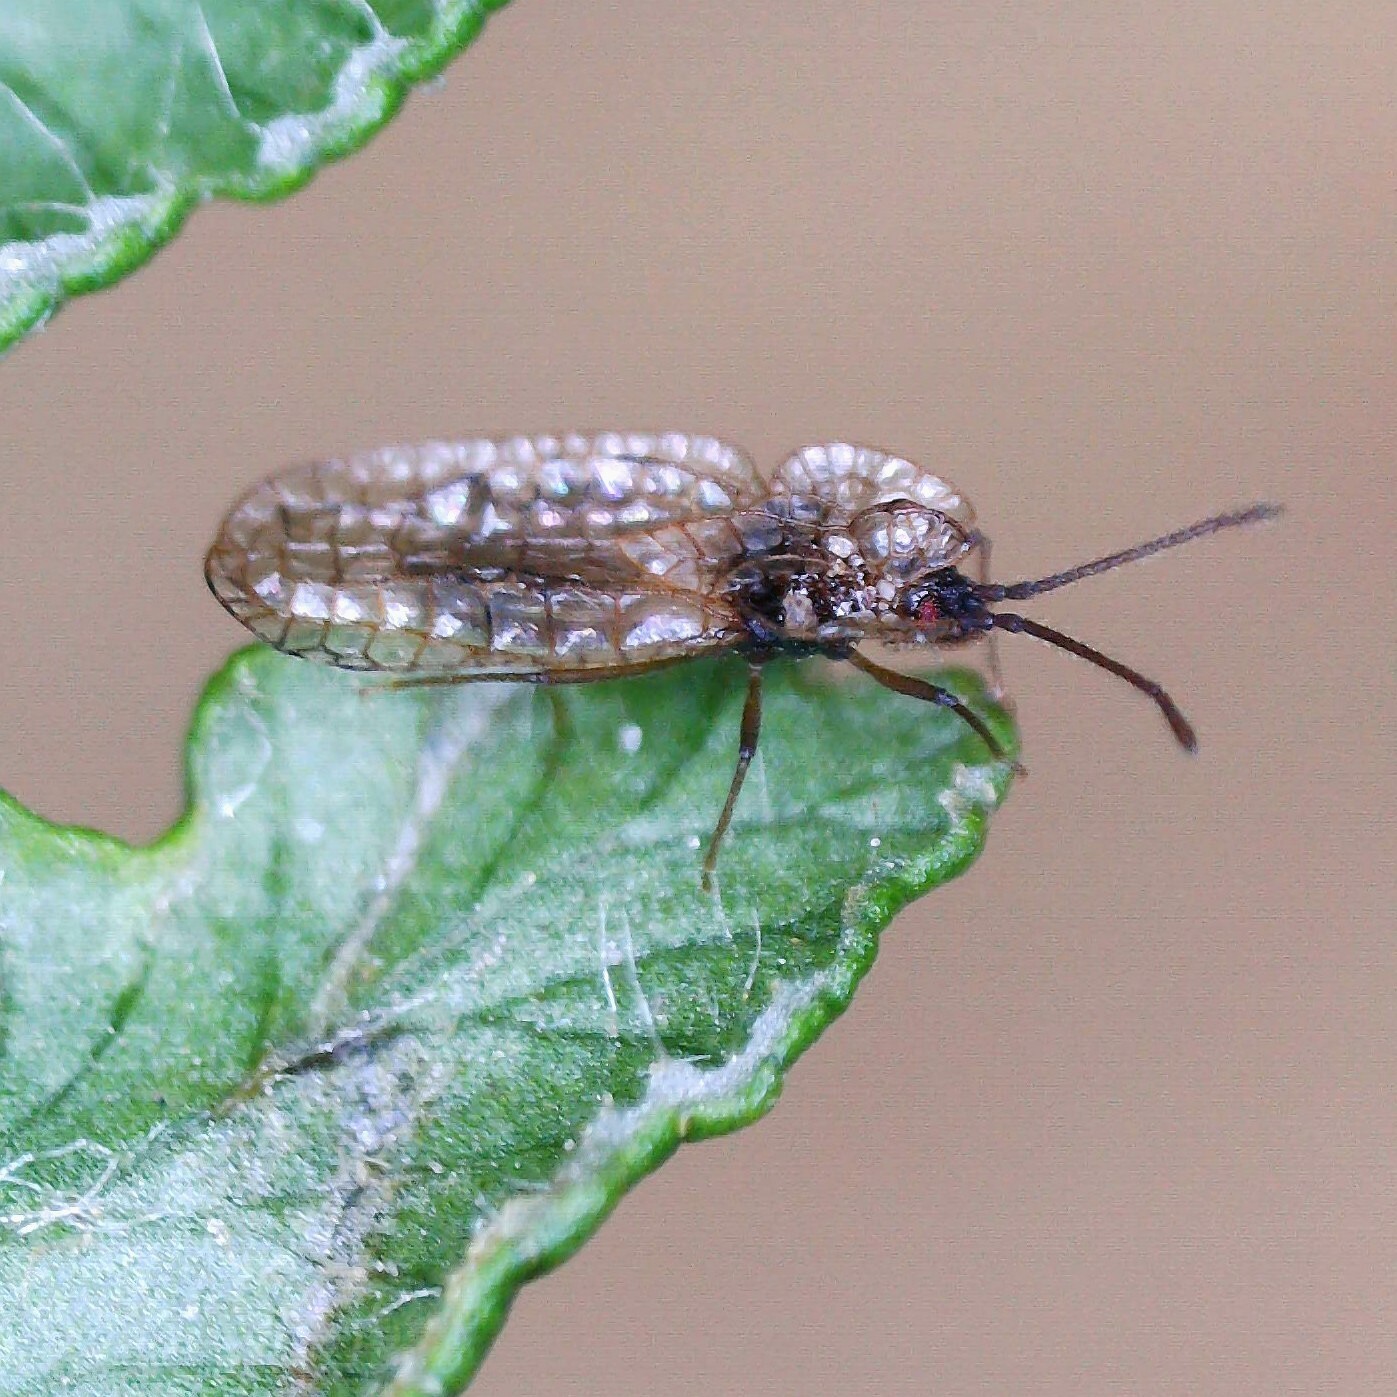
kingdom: Animalia
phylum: Arthropoda
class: Insecta
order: Hemiptera
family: Tingidae
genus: Derephysia
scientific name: Derephysia foliacea
